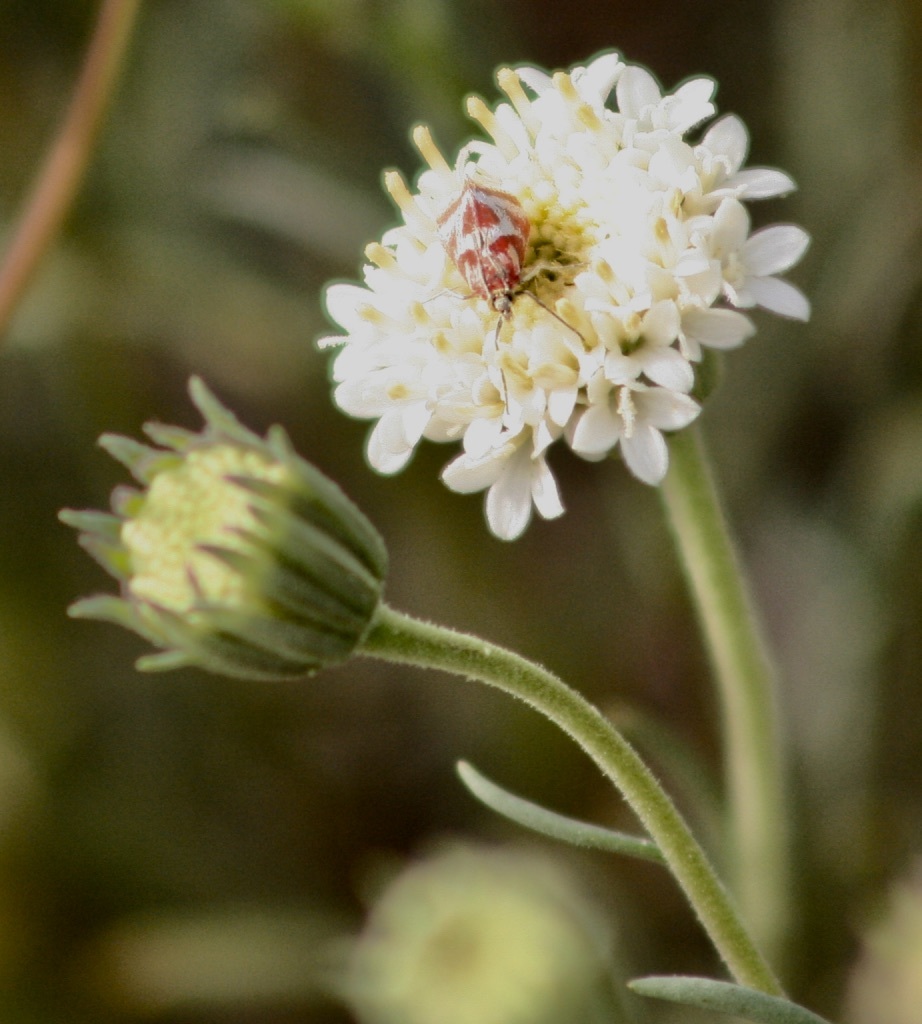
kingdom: Animalia
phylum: Arthropoda
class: Insecta
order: Lepidoptera
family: Crambidae
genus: Noctueliopsis
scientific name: Noctueliopsis aridalis
